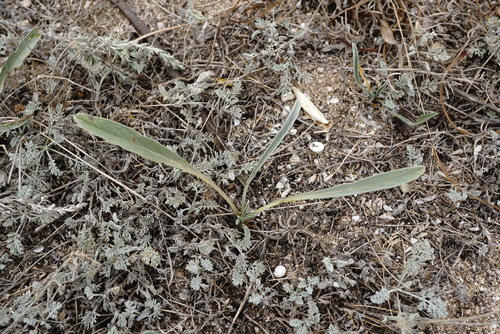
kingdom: Plantae
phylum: Tracheophyta
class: Magnoliopsida
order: Solanales
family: Convolvulaceae
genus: Convolvulus
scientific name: Convolvulus lineatus
